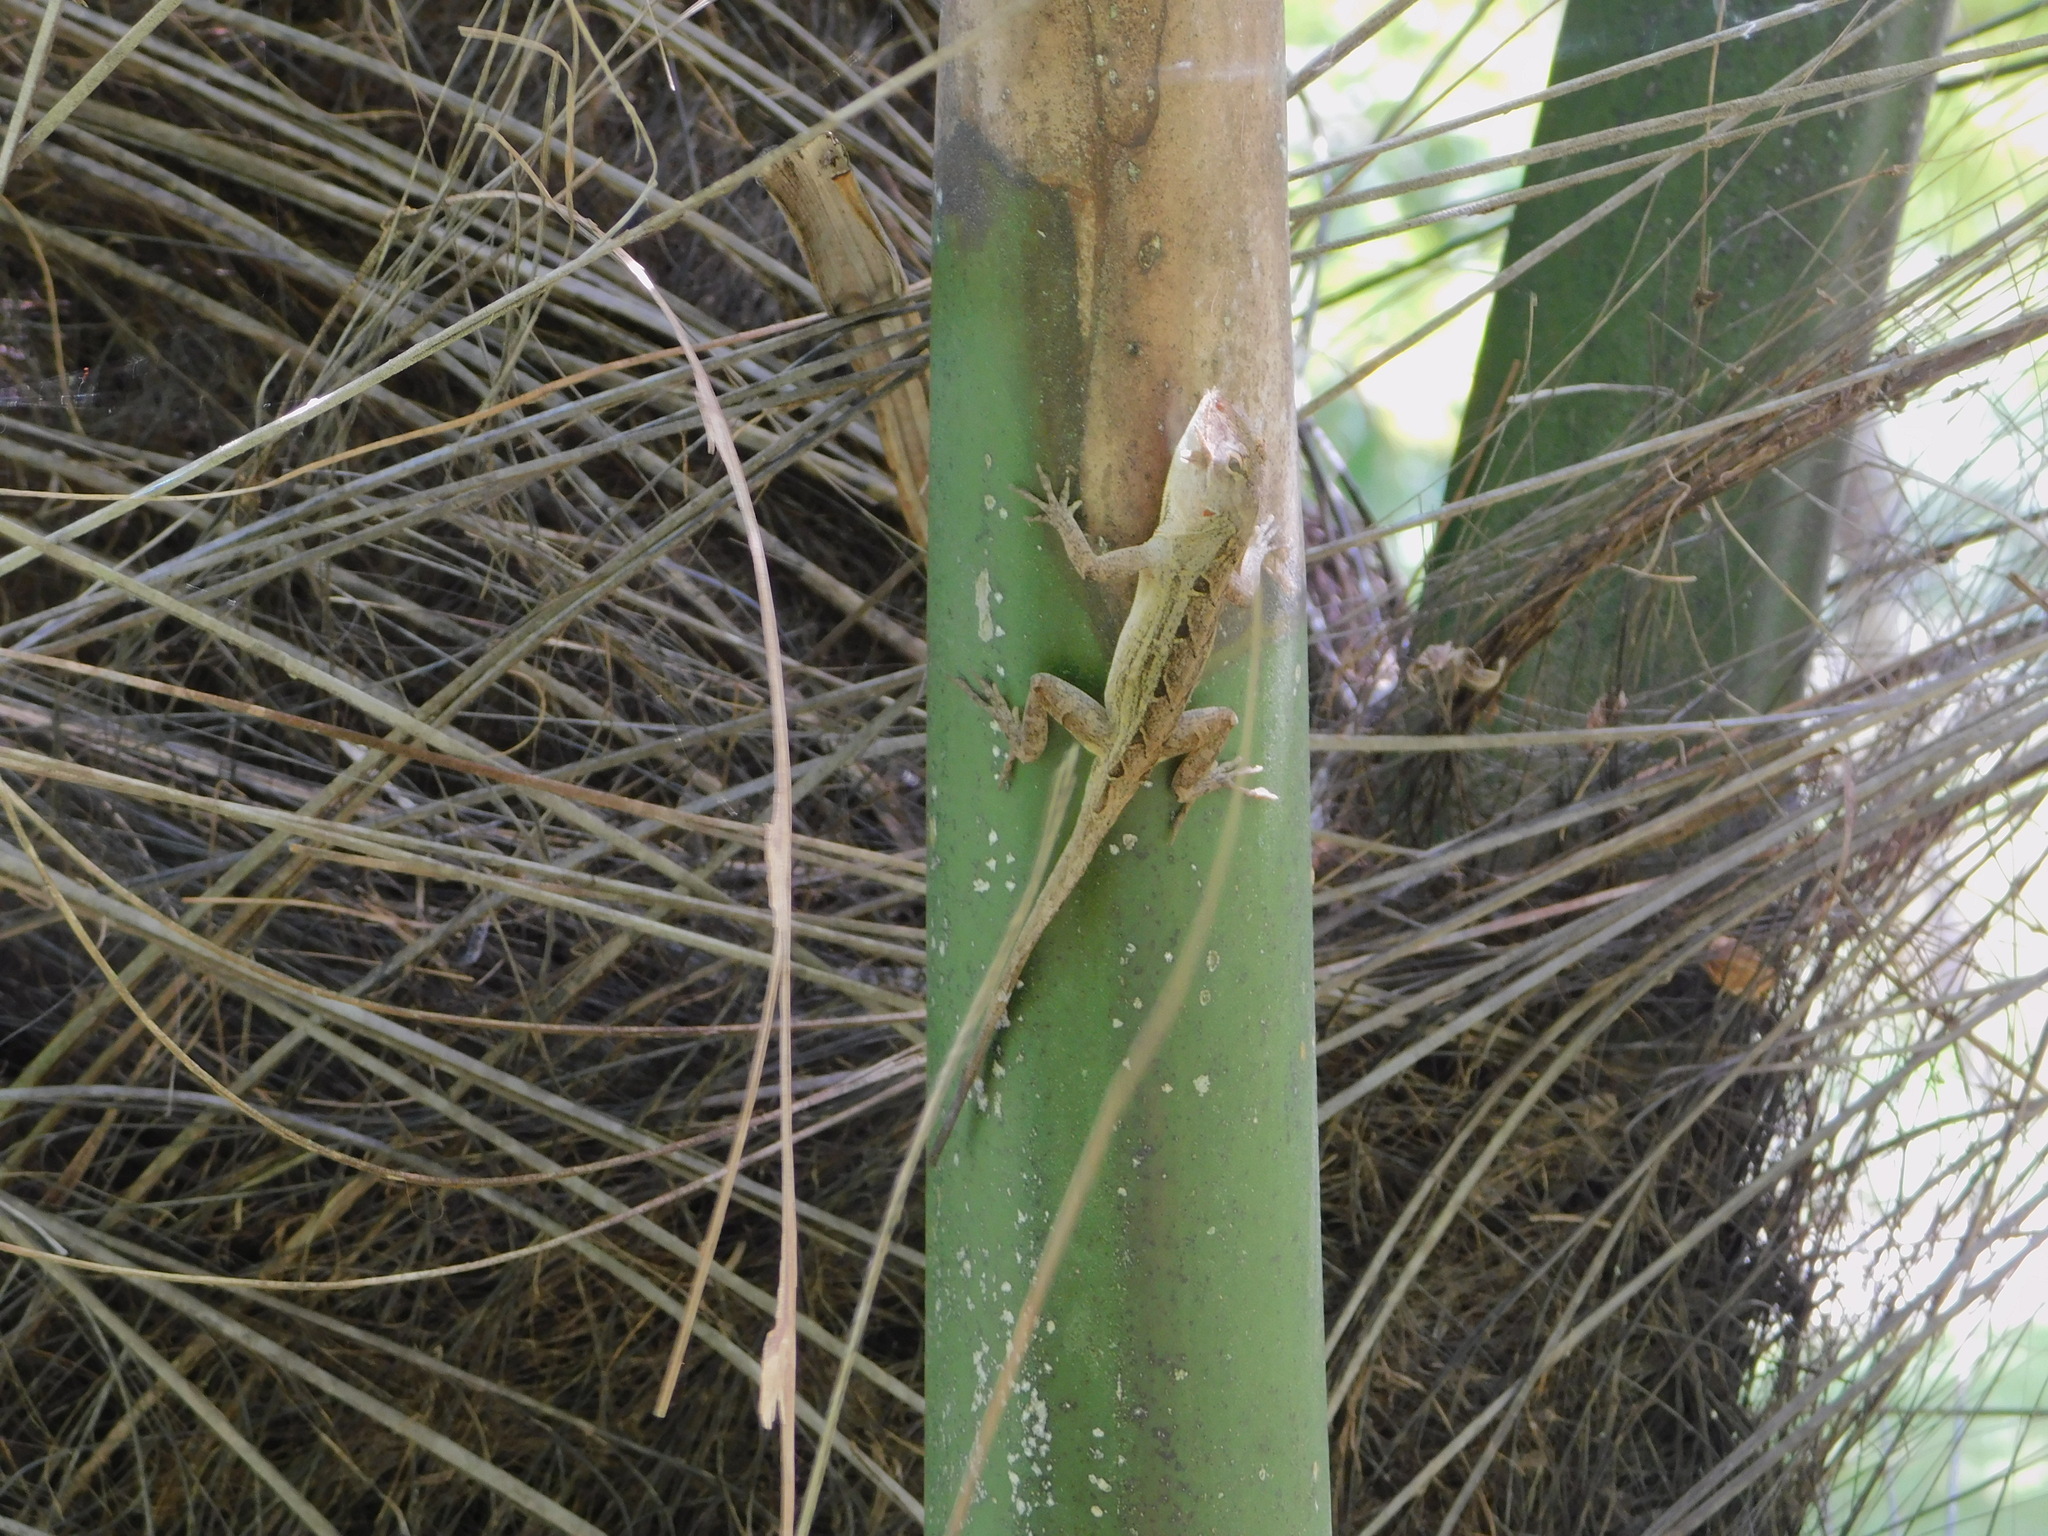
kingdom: Animalia
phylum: Chordata
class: Squamata
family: Dactyloidae
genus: Anolis
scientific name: Anolis sagrei
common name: Brown anole
